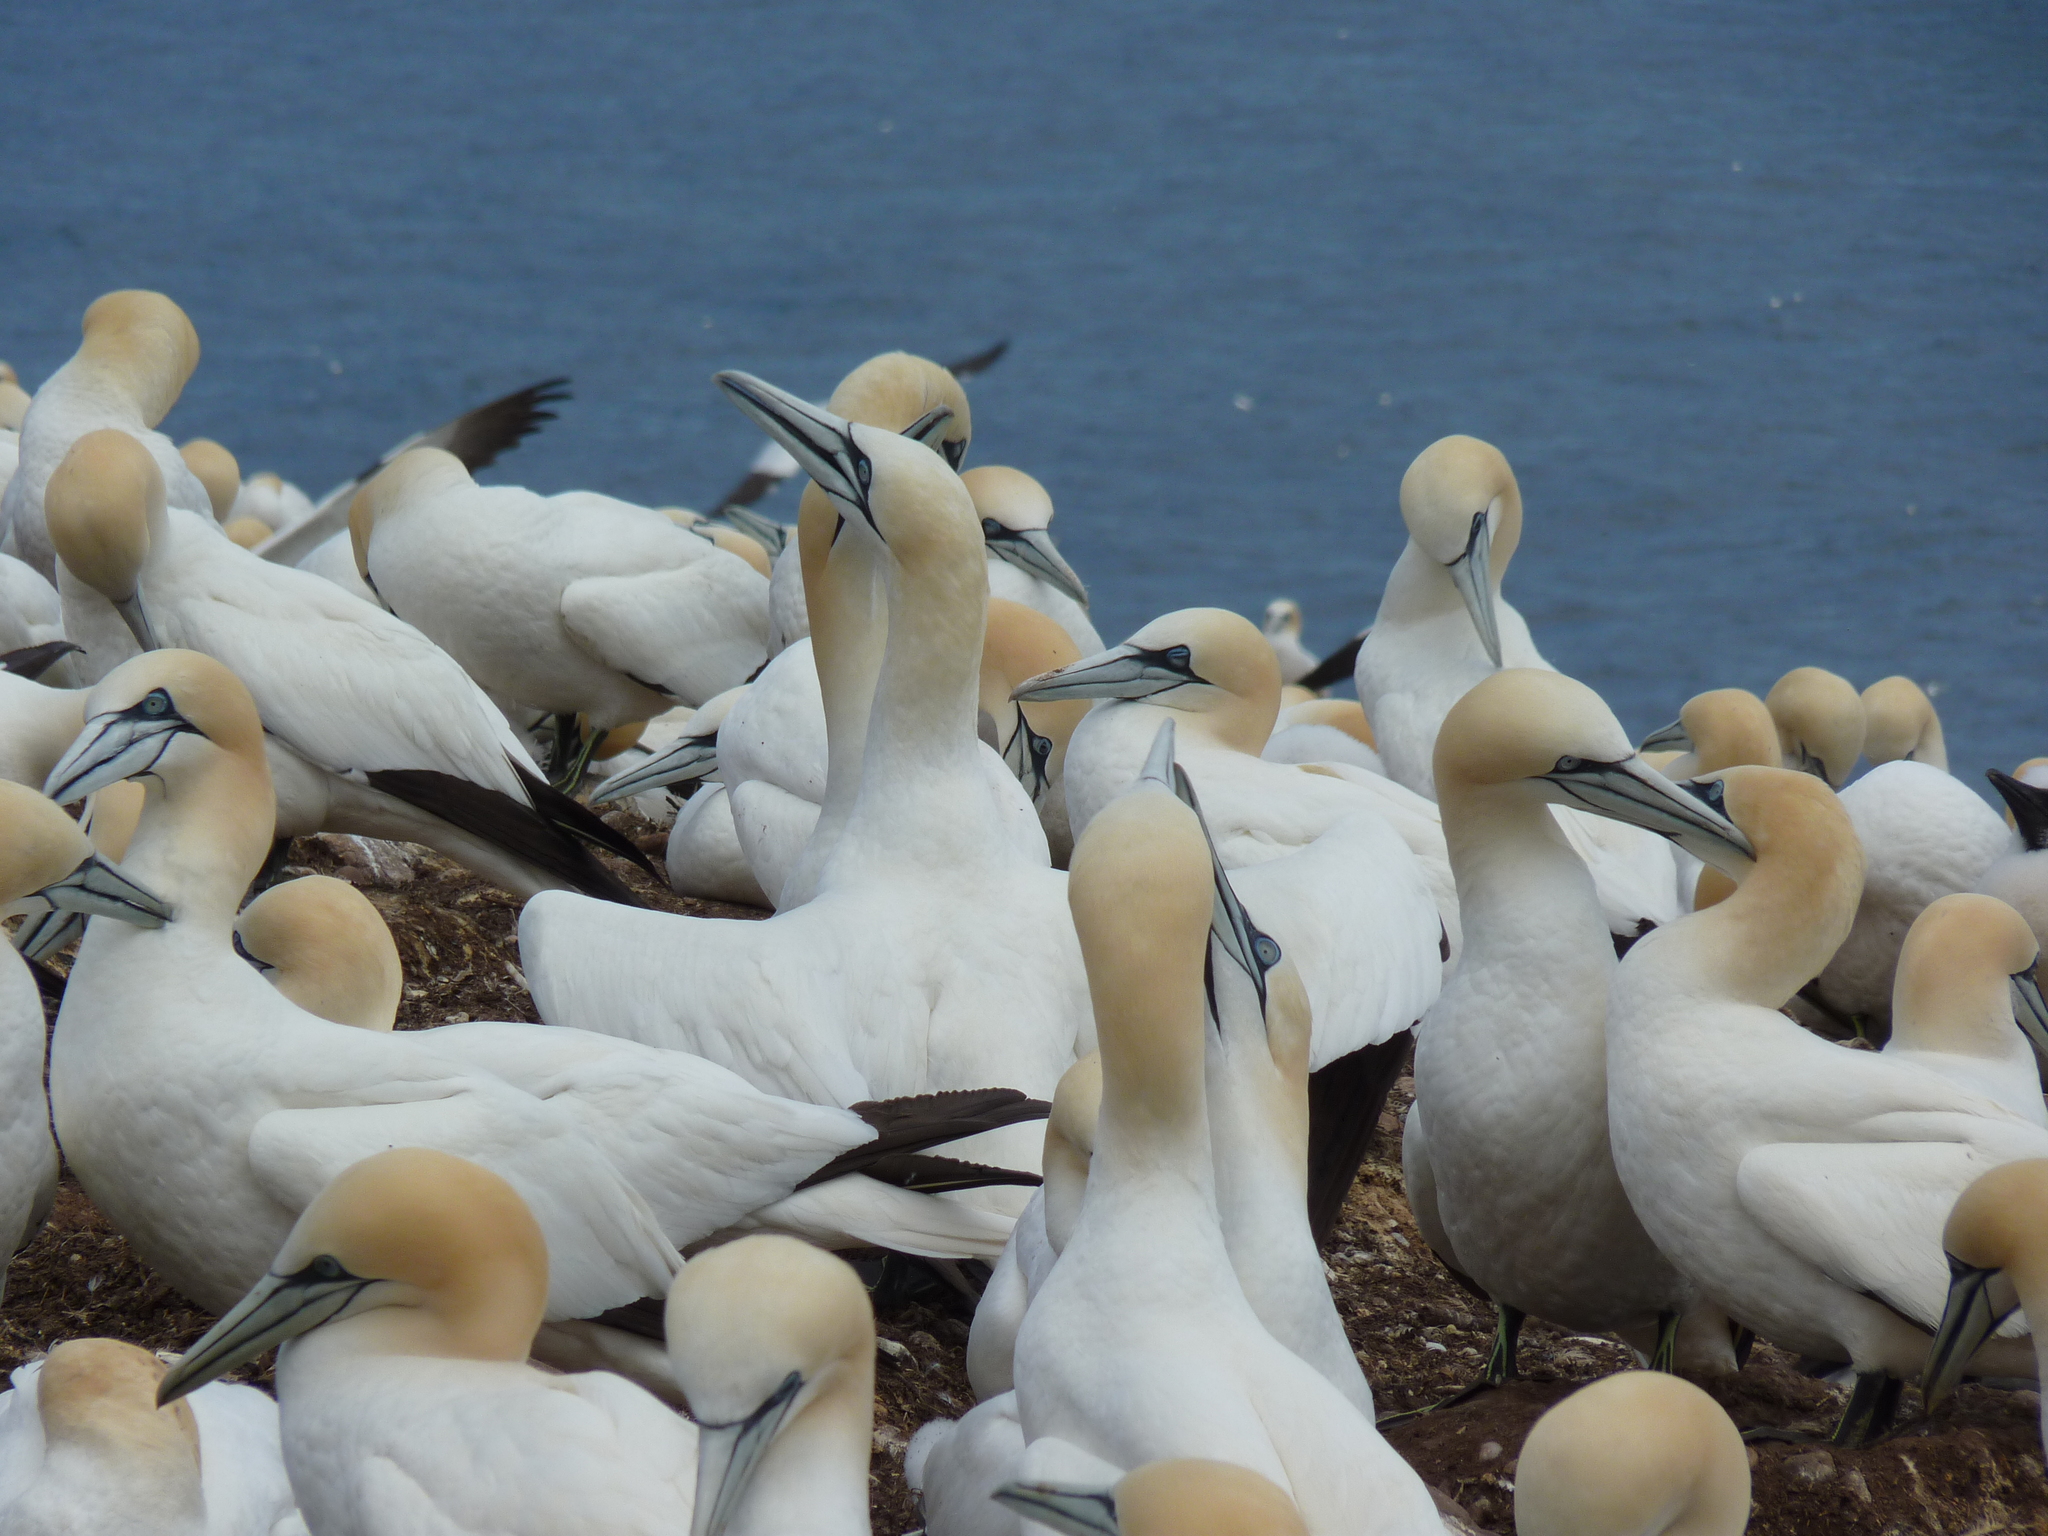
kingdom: Animalia
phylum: Chordata
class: Aves
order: Suliformes
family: Sulidae
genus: Morus
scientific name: Morus bassanus
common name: Northern gannet
